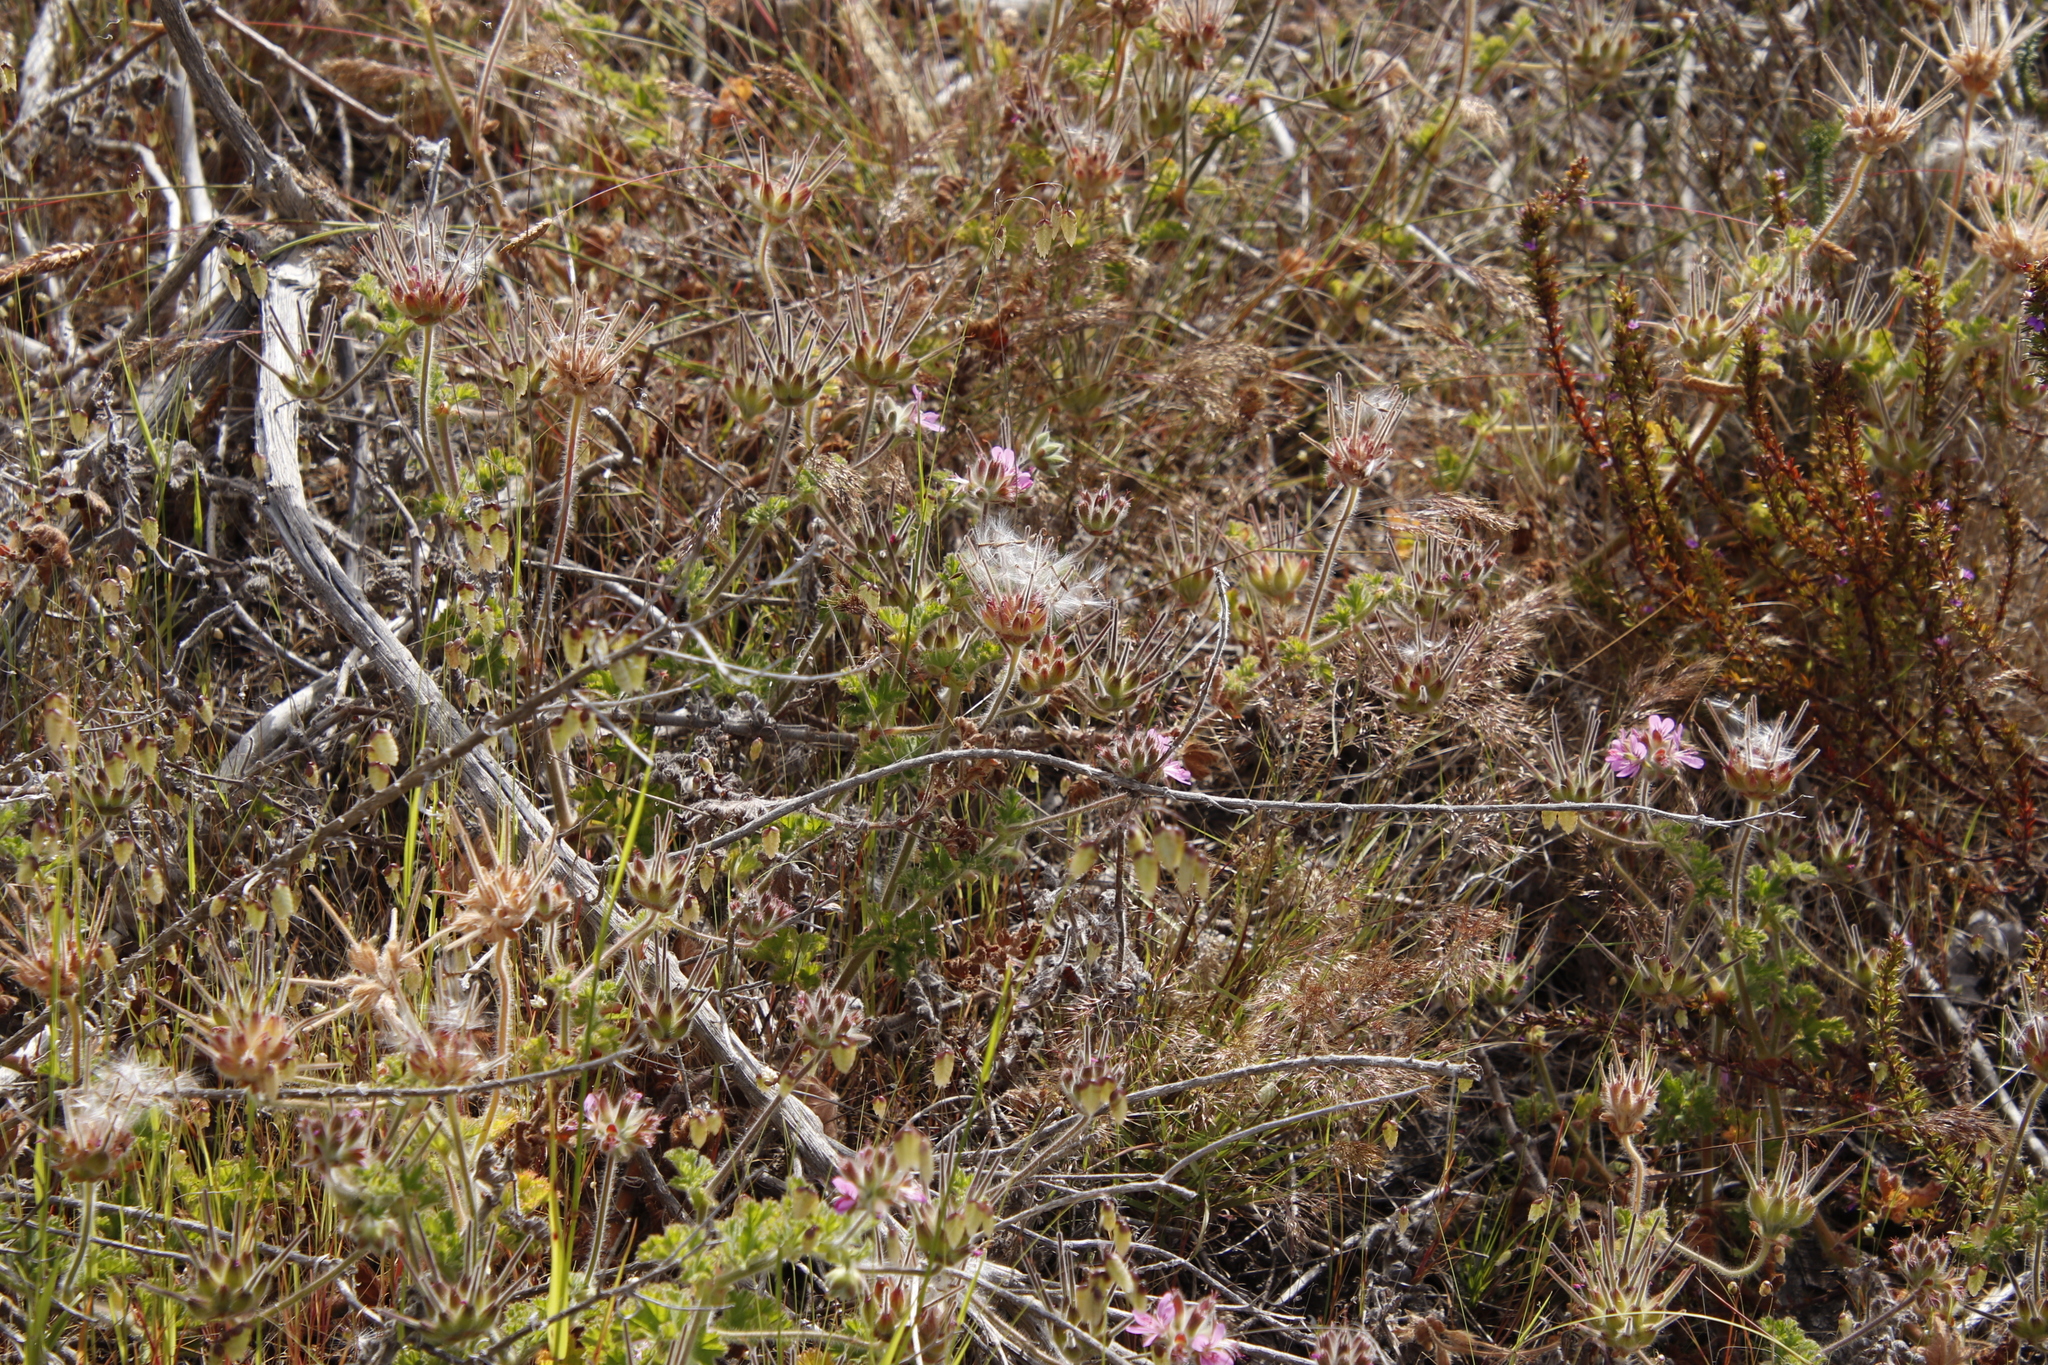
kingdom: Plantae
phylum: Tracheophyta
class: Magnoliopsida
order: Geraniales
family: Geraniaceae
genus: Pelargonium
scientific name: Pelargonium capitatum
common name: Rose scented geranium
